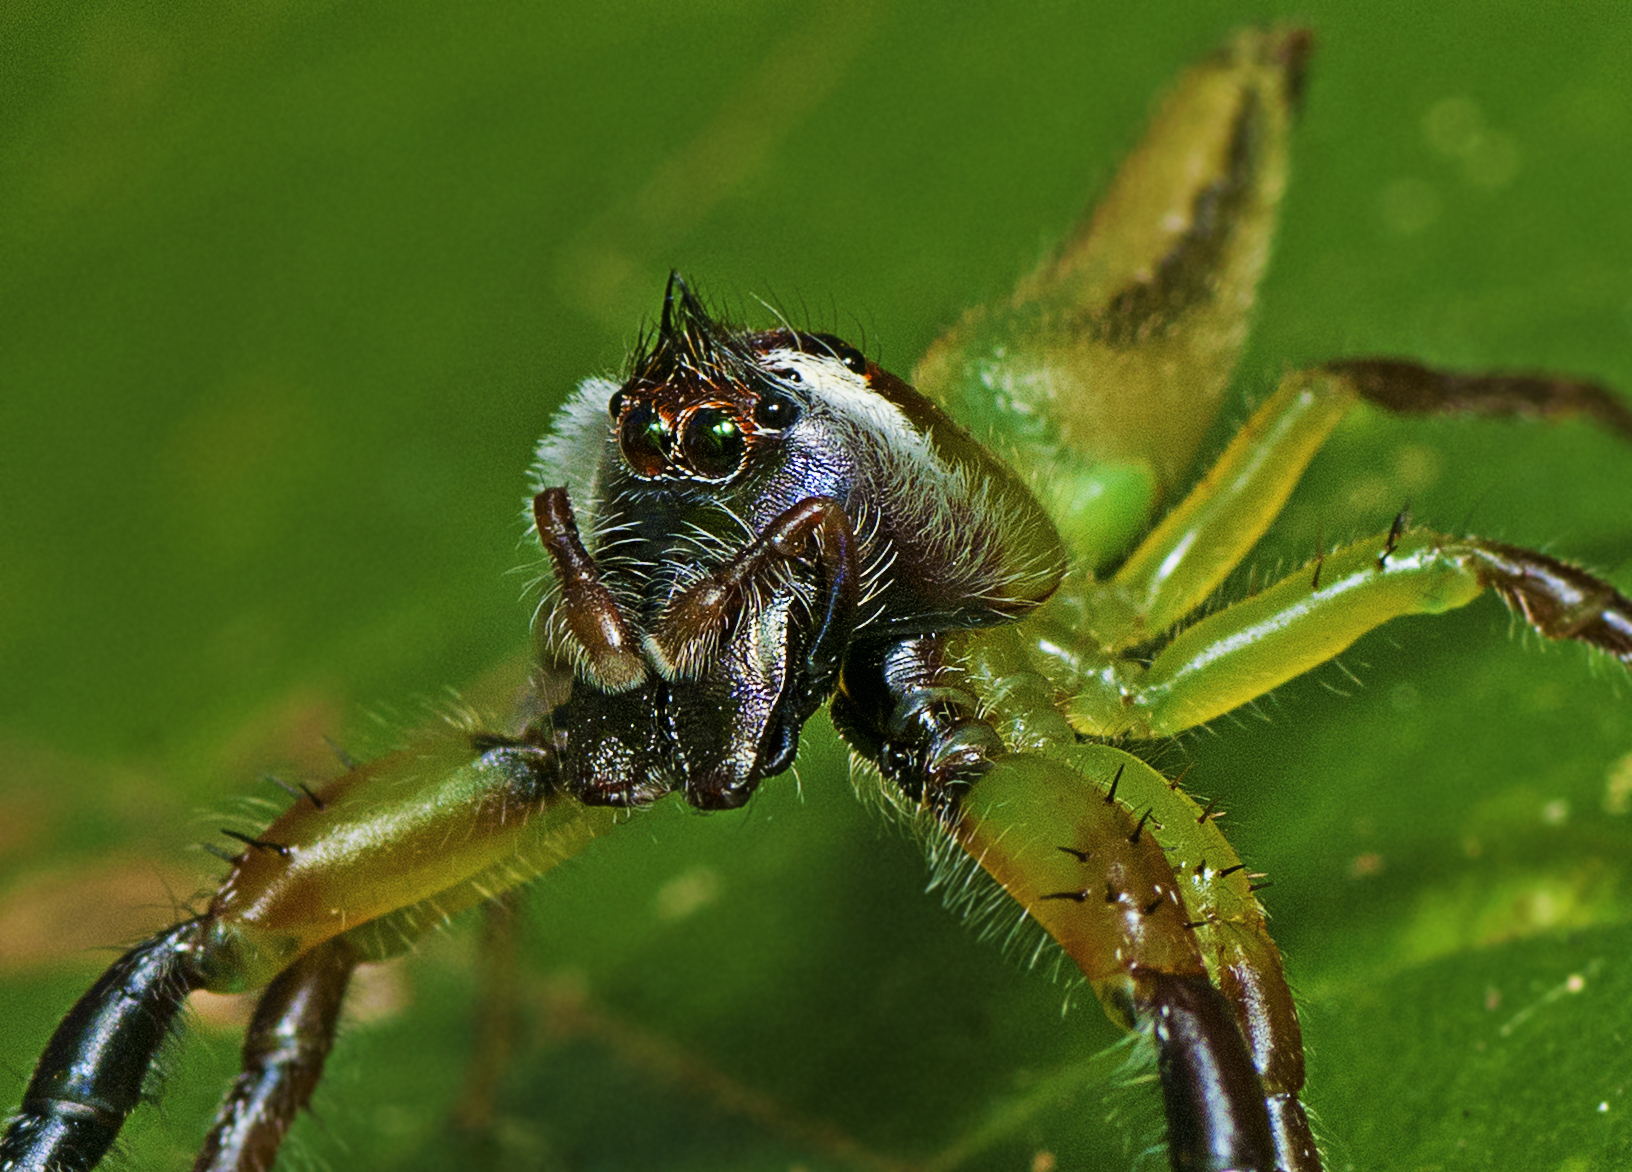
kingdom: Animalia
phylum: Arthropoda
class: Arachnida
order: Araneae
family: Salticidae
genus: Mopsus
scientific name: Mopsus mormon
